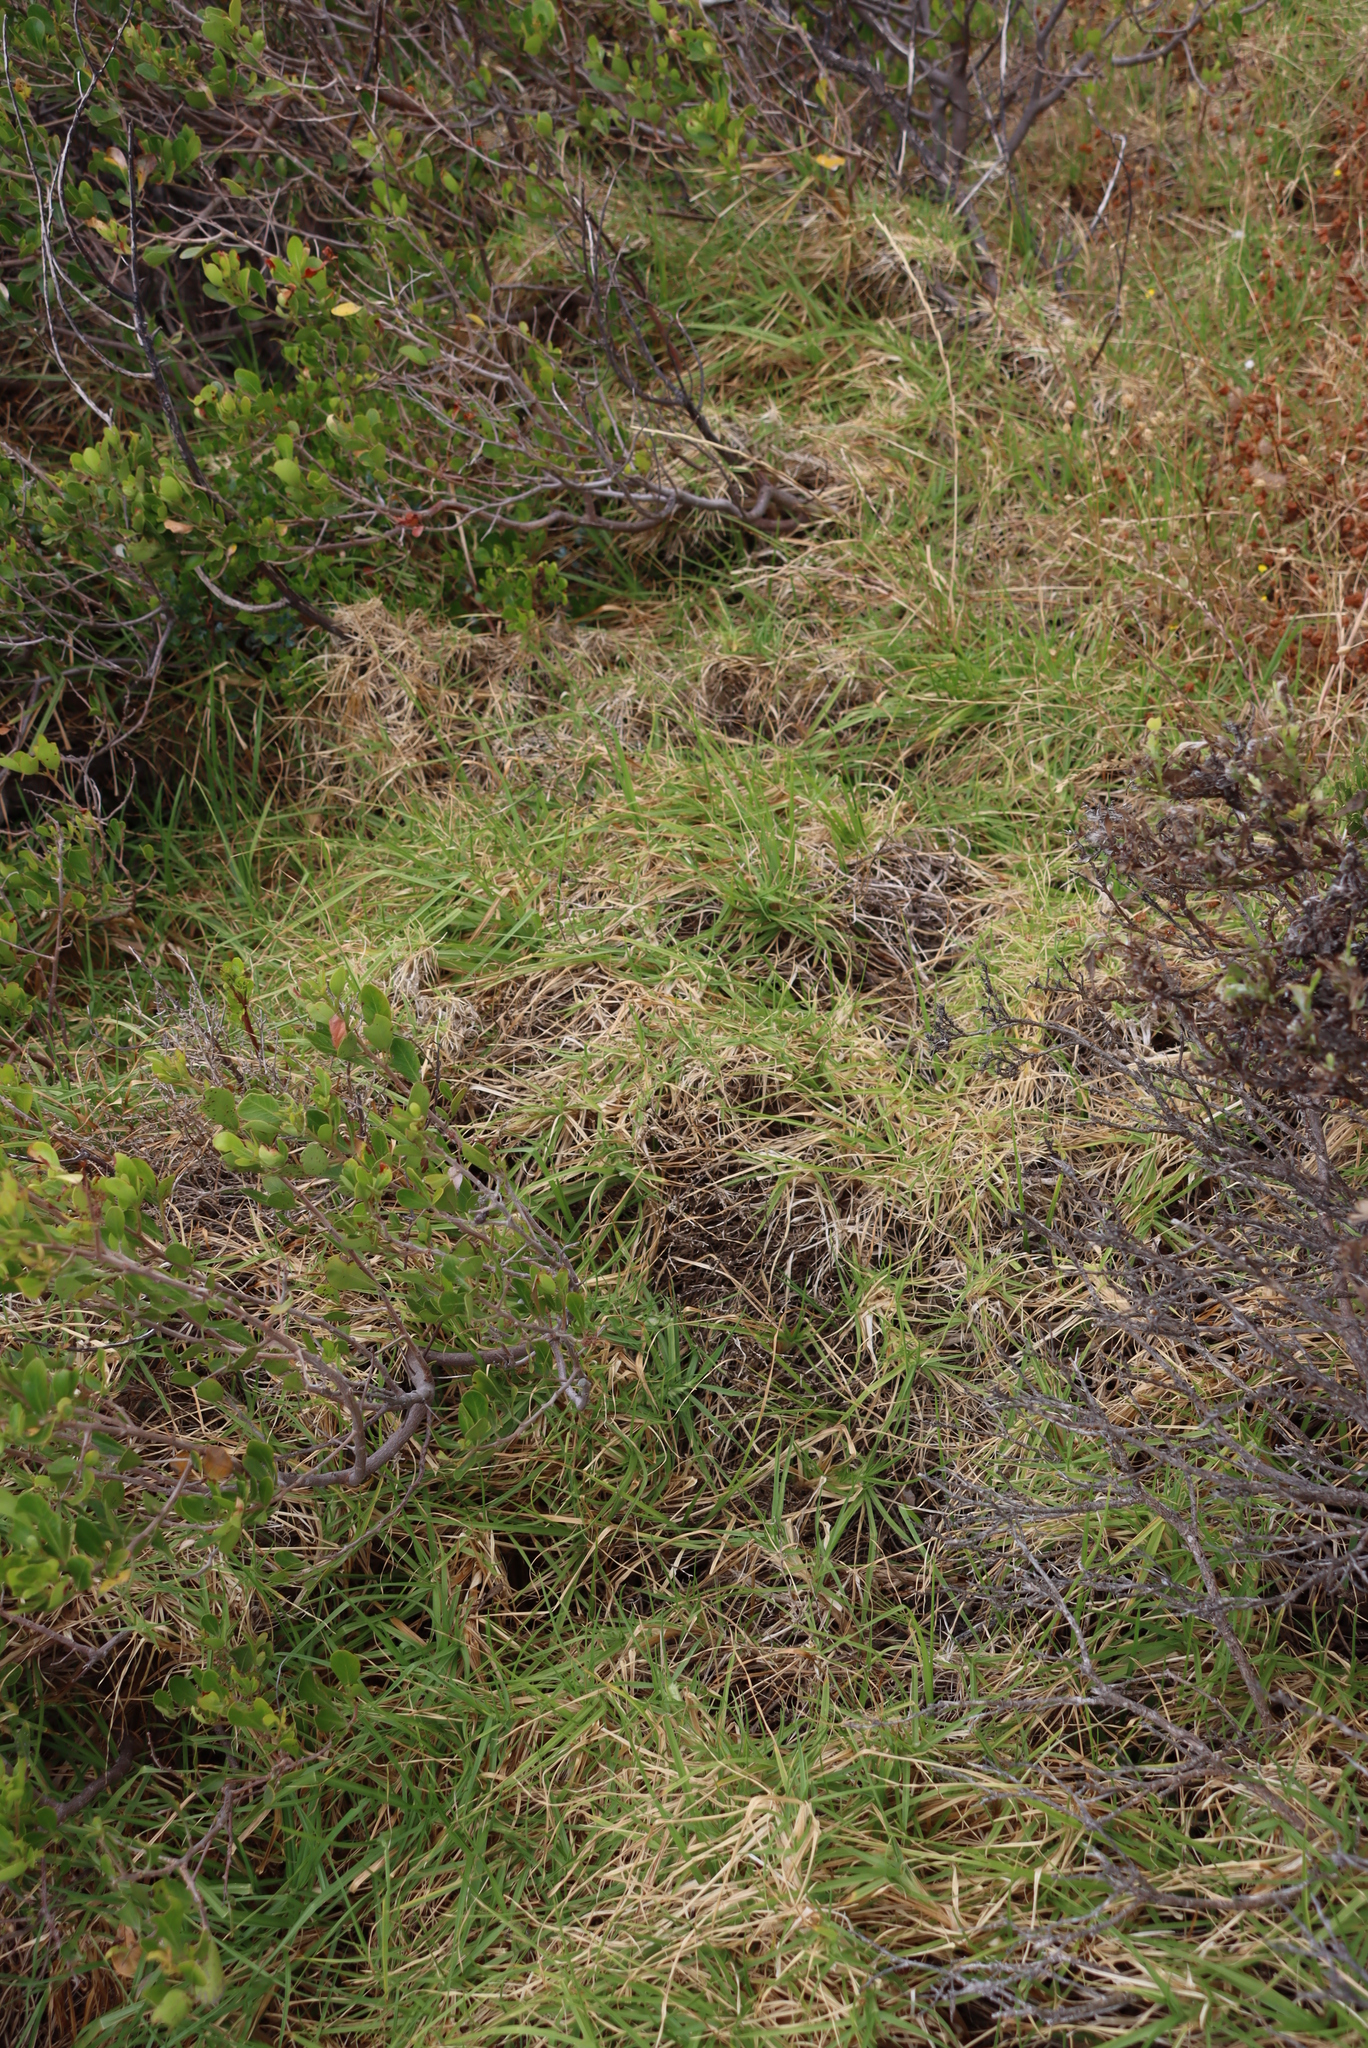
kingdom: Plantae
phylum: Tracheophyta
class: Liliopsida
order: Poales
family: Poaceae
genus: Cenchrus
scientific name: Cenchrus clandestinus
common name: Kikuyugrass
